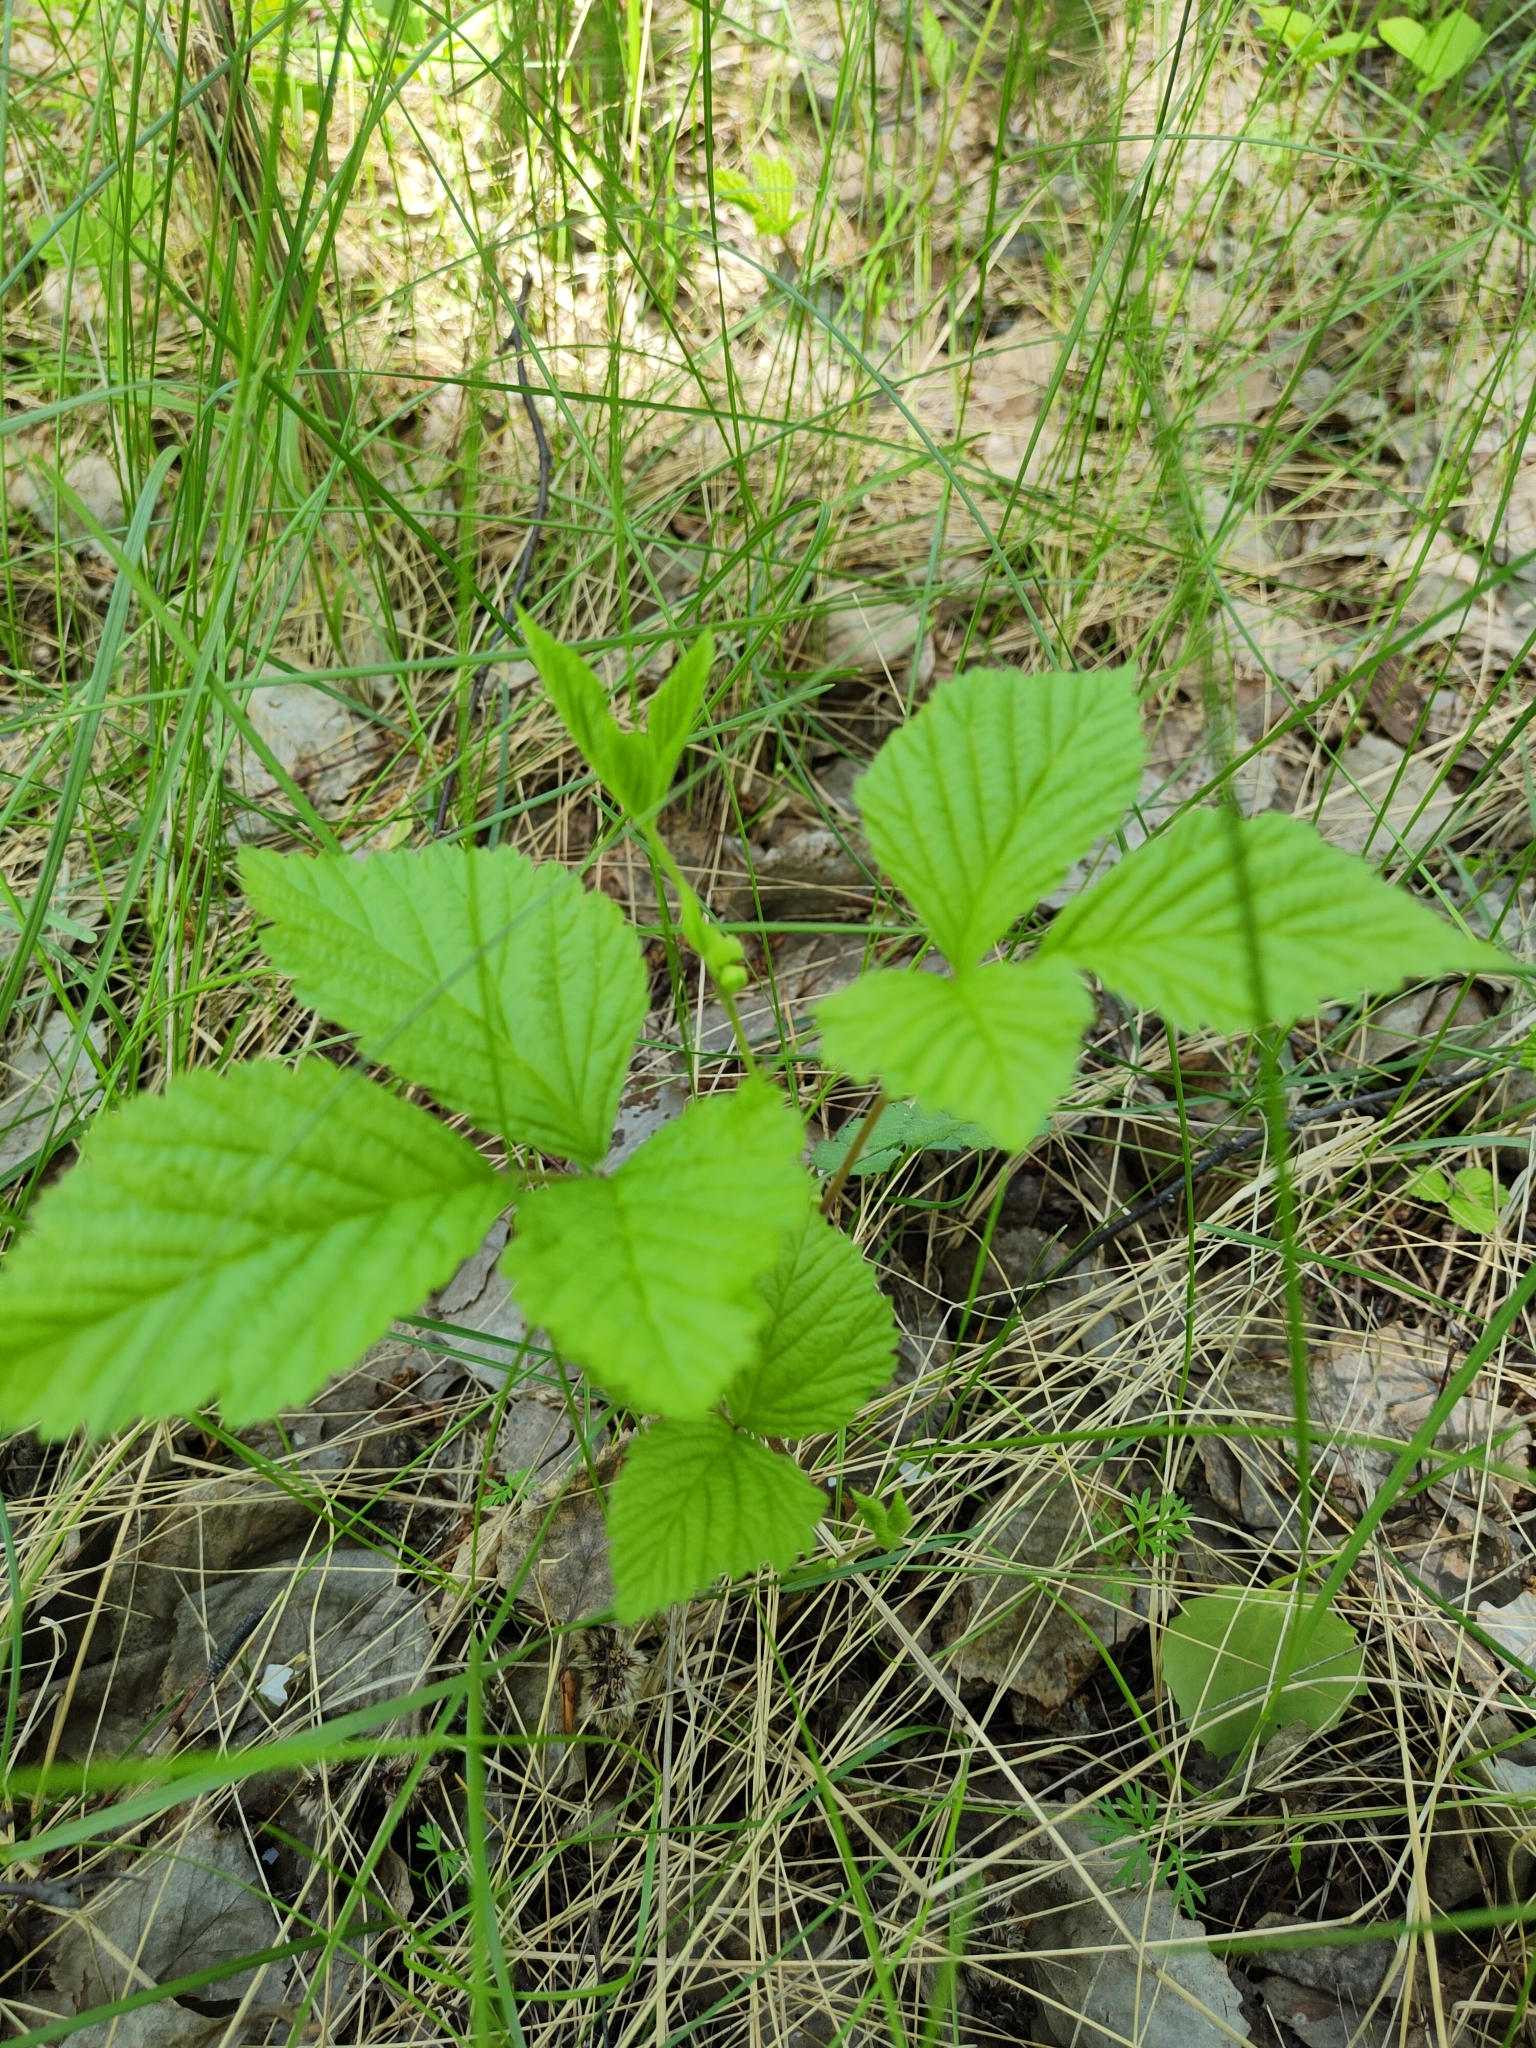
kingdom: Plantae
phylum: Tracheophyta
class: Magnoliopsida
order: Rosales
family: Rosaceae
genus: Rubus
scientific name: Rubus saxatilis
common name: Stone bramble
